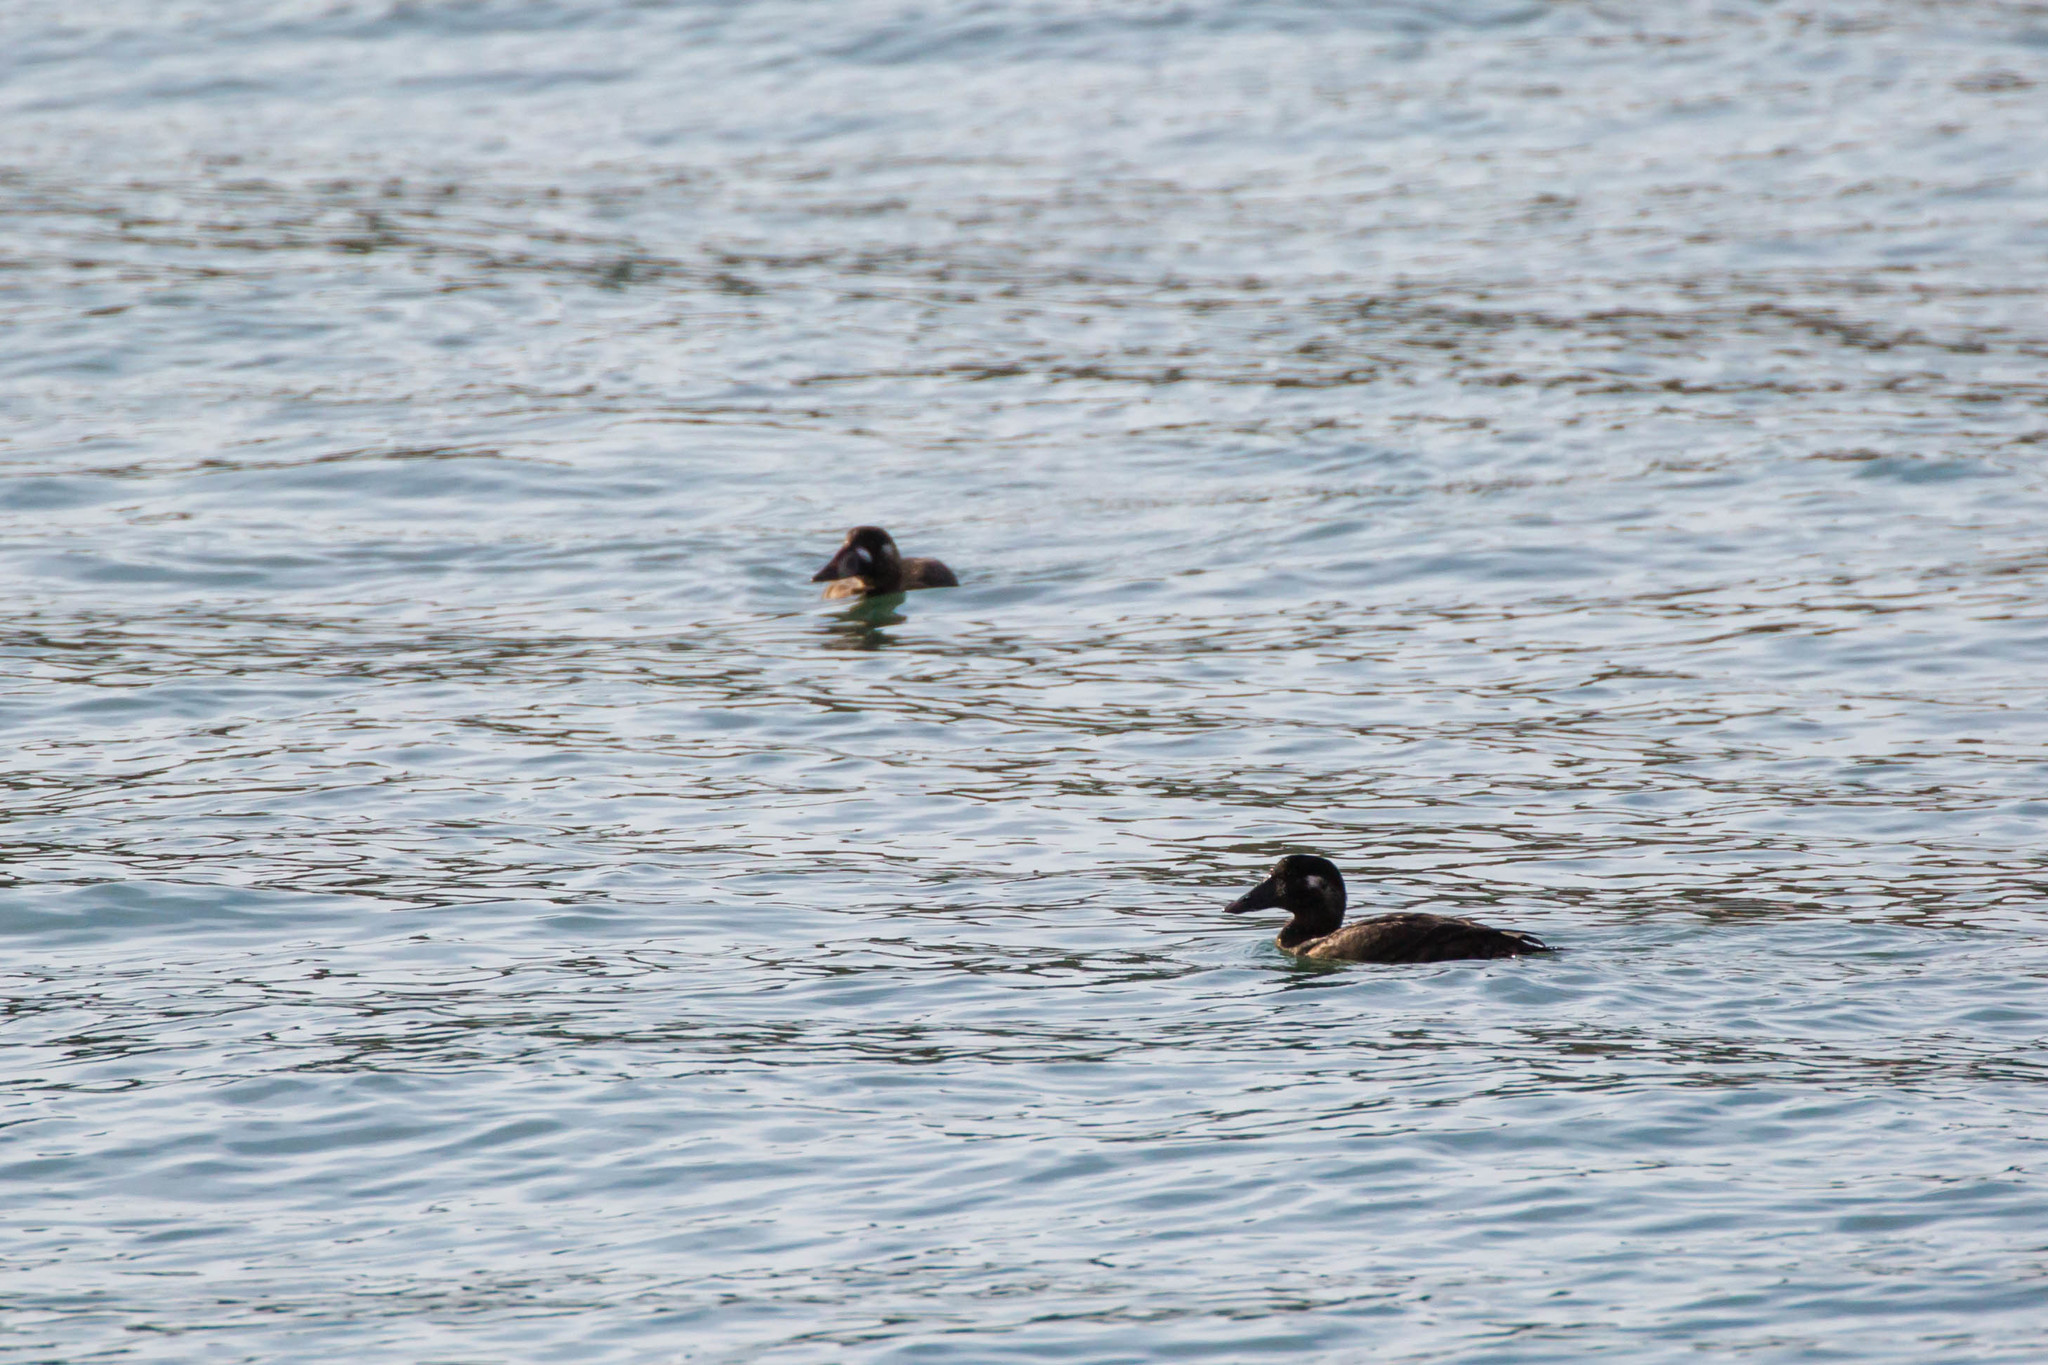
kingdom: Animalia
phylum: Chordata
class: Aves
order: Anseriformes
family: Anatidae
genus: Melanitta
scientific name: Melanitta perspicillata
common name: Surf scoter
